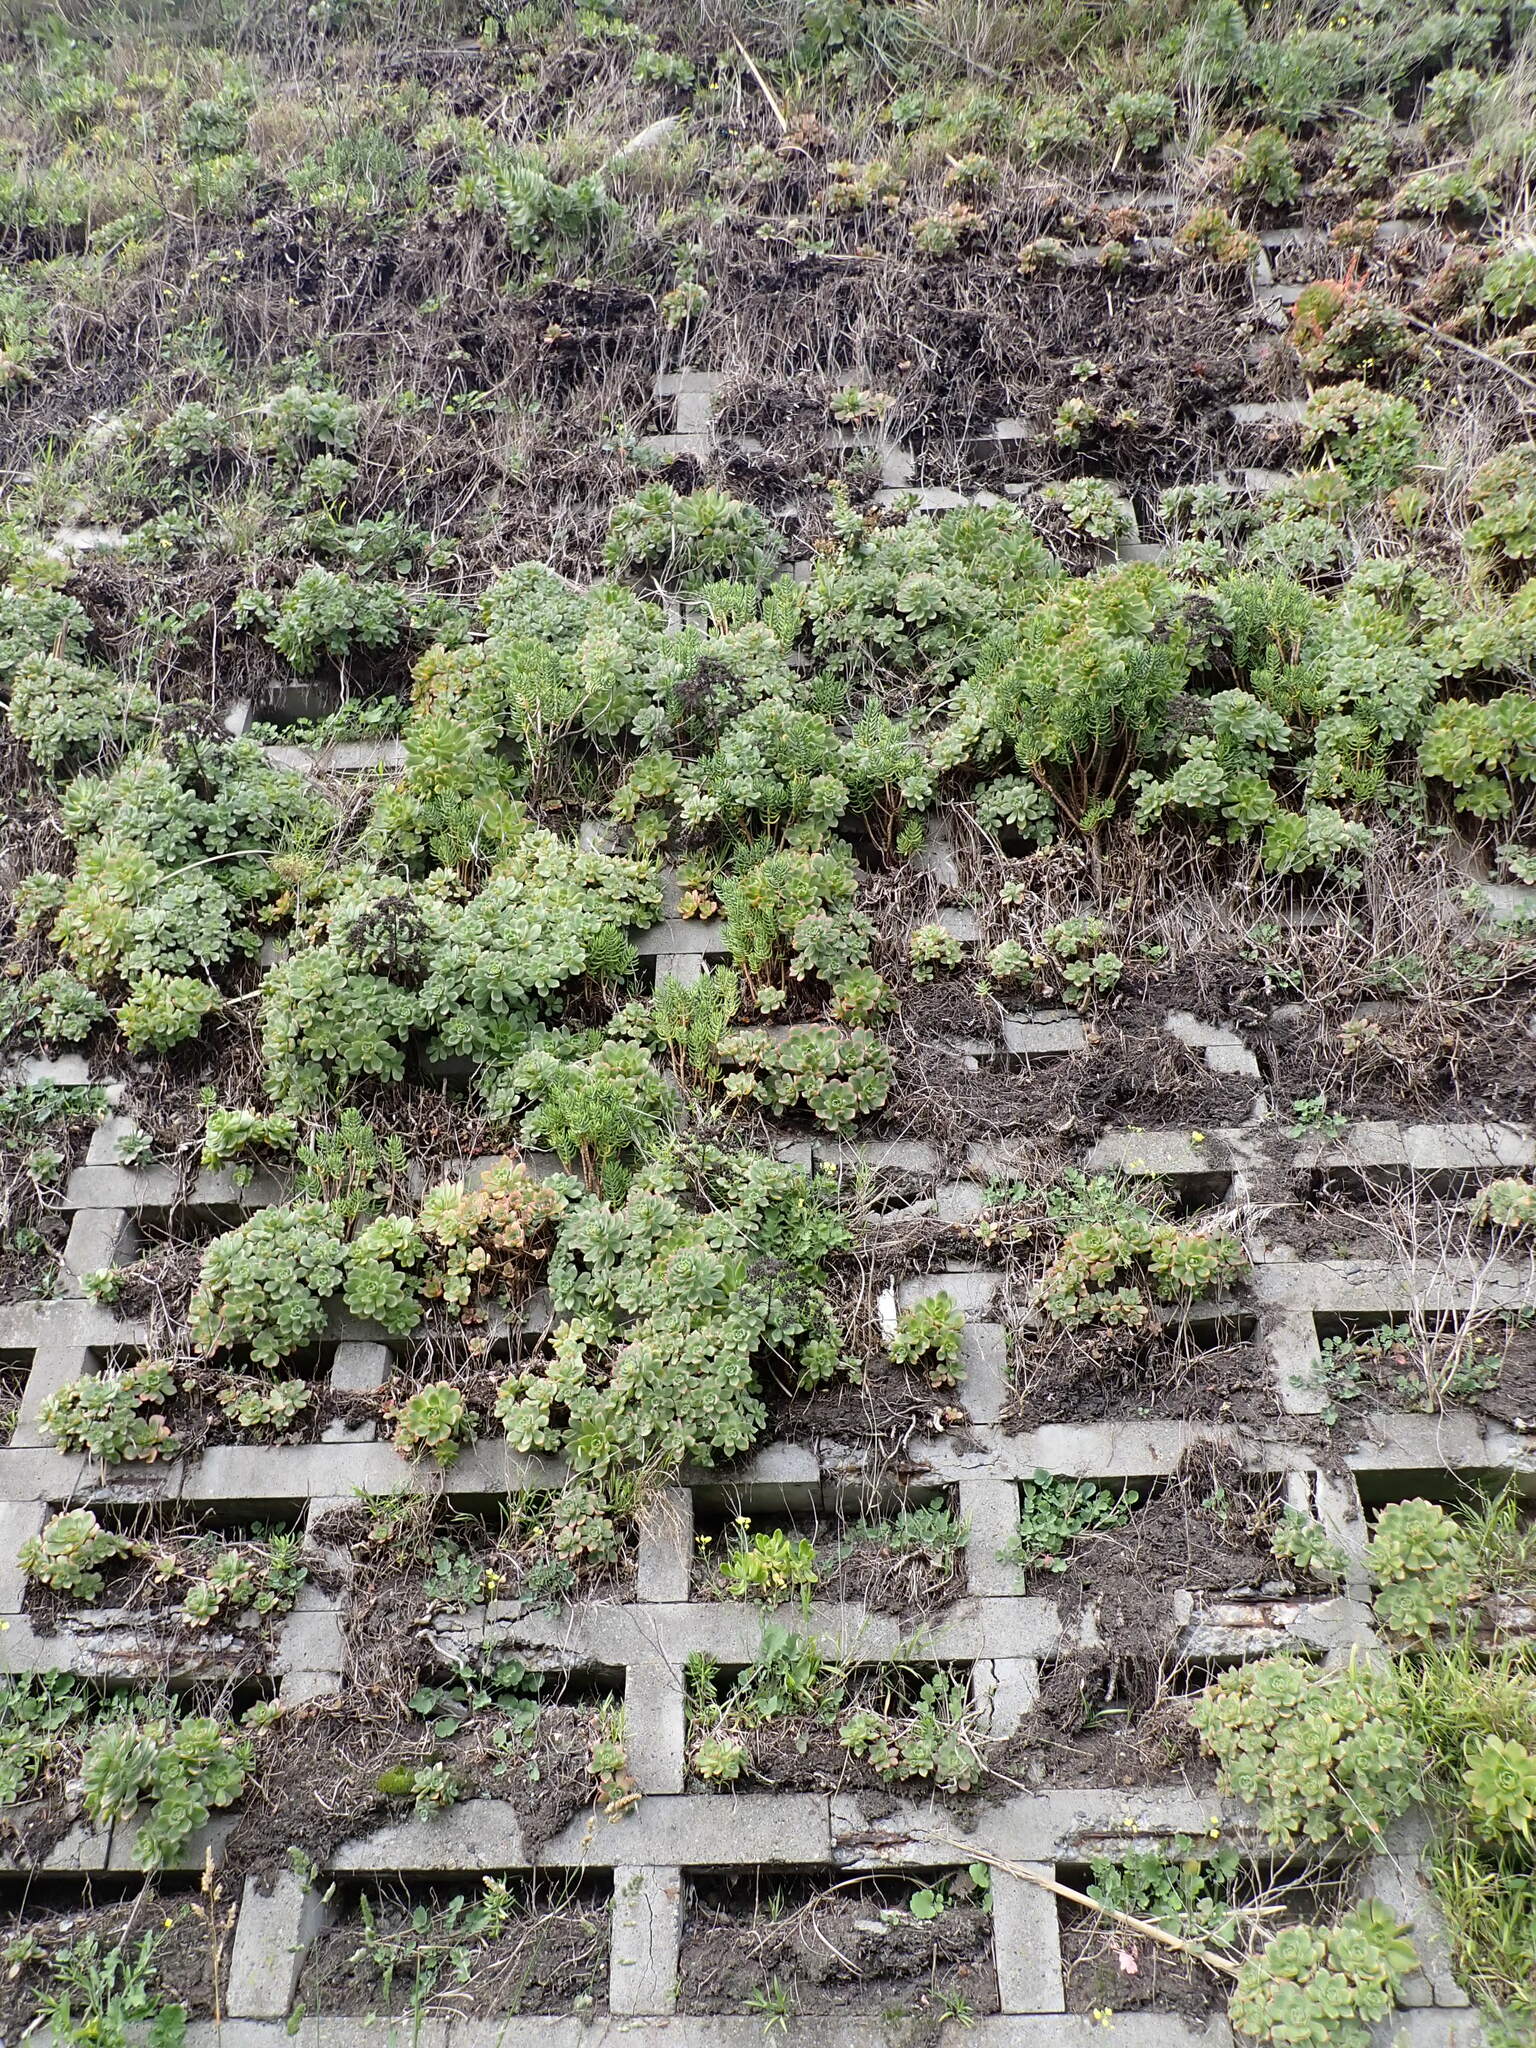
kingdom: Plantae
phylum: Tracheophyta
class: Magnoliopsida
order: Saxifragales
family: Crassulaceae
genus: Crassula
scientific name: Crassula tetragona
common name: Pygmyweed
